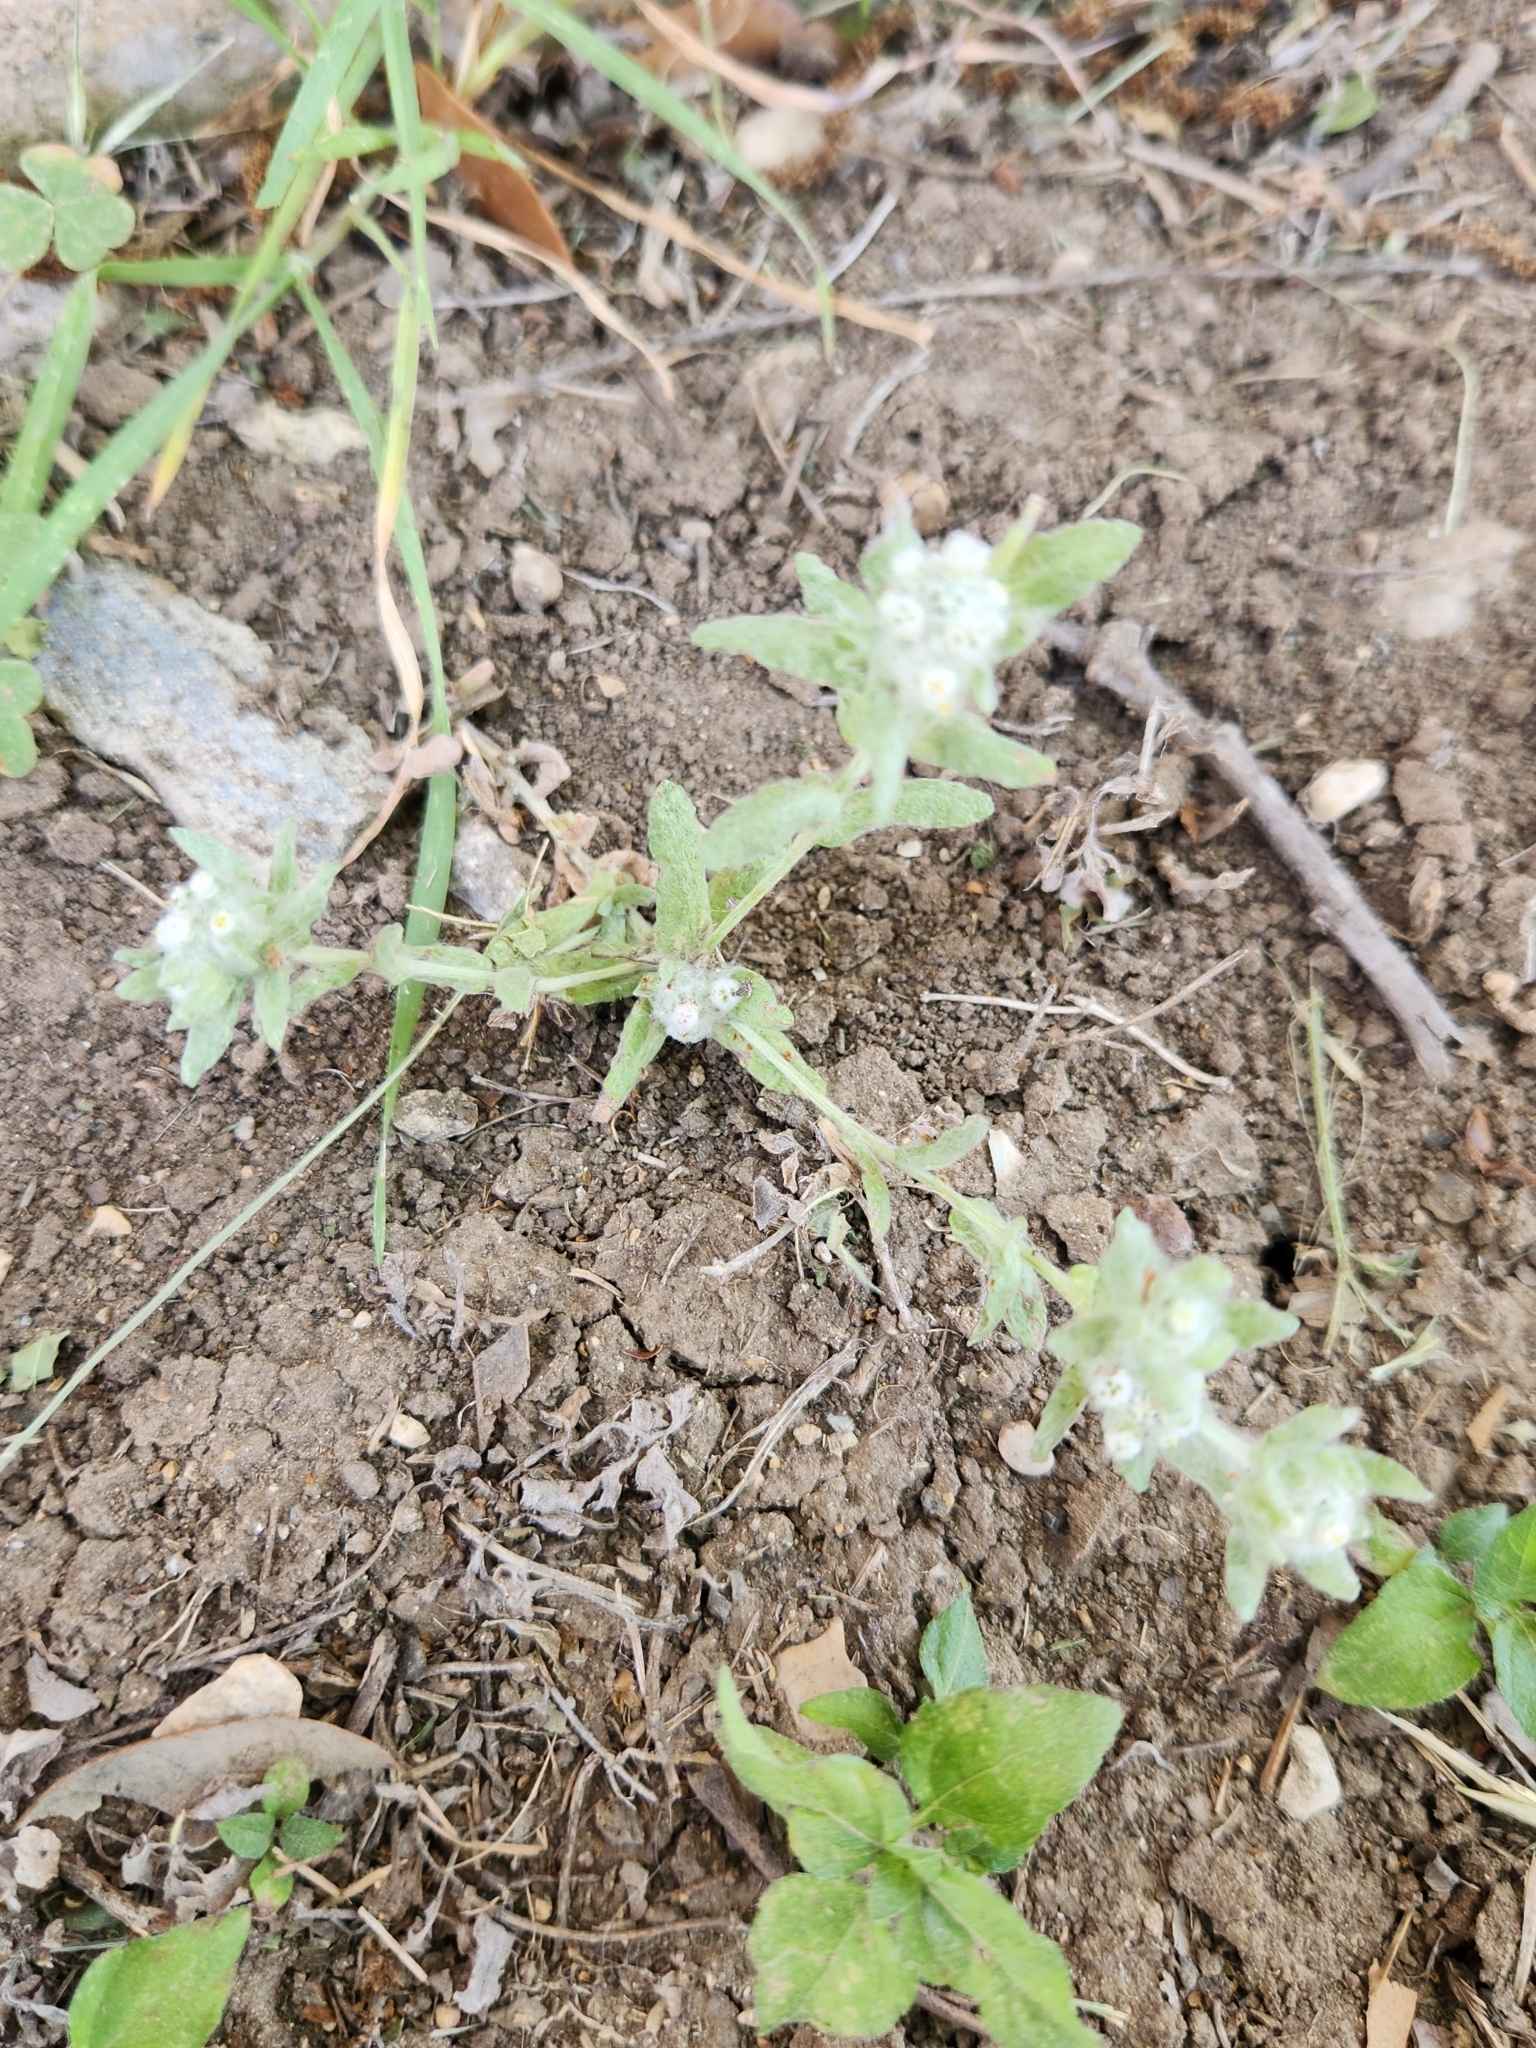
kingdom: Plantae
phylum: Tracheophyta
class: Magnoliopsida
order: Asterales
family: Asteraceae
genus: Diaperia
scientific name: Diaperia verna
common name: Many-stem rabbit-tobacco
